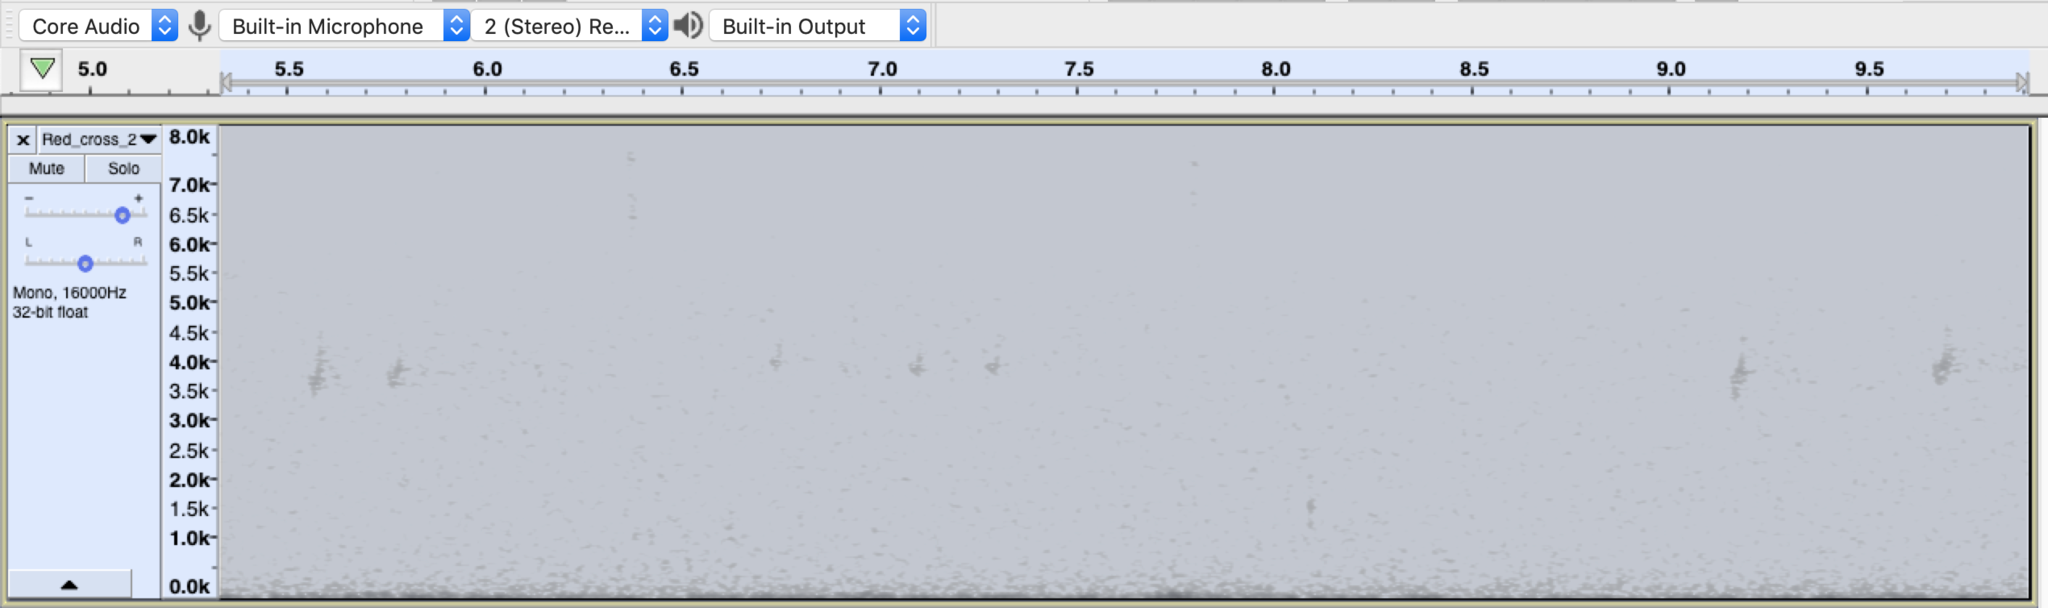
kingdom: Animalia
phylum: Chordata
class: Aves
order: Passeriformes
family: Fringillidae
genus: Loxia
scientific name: Loxia curvirostra
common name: Red crossbill
